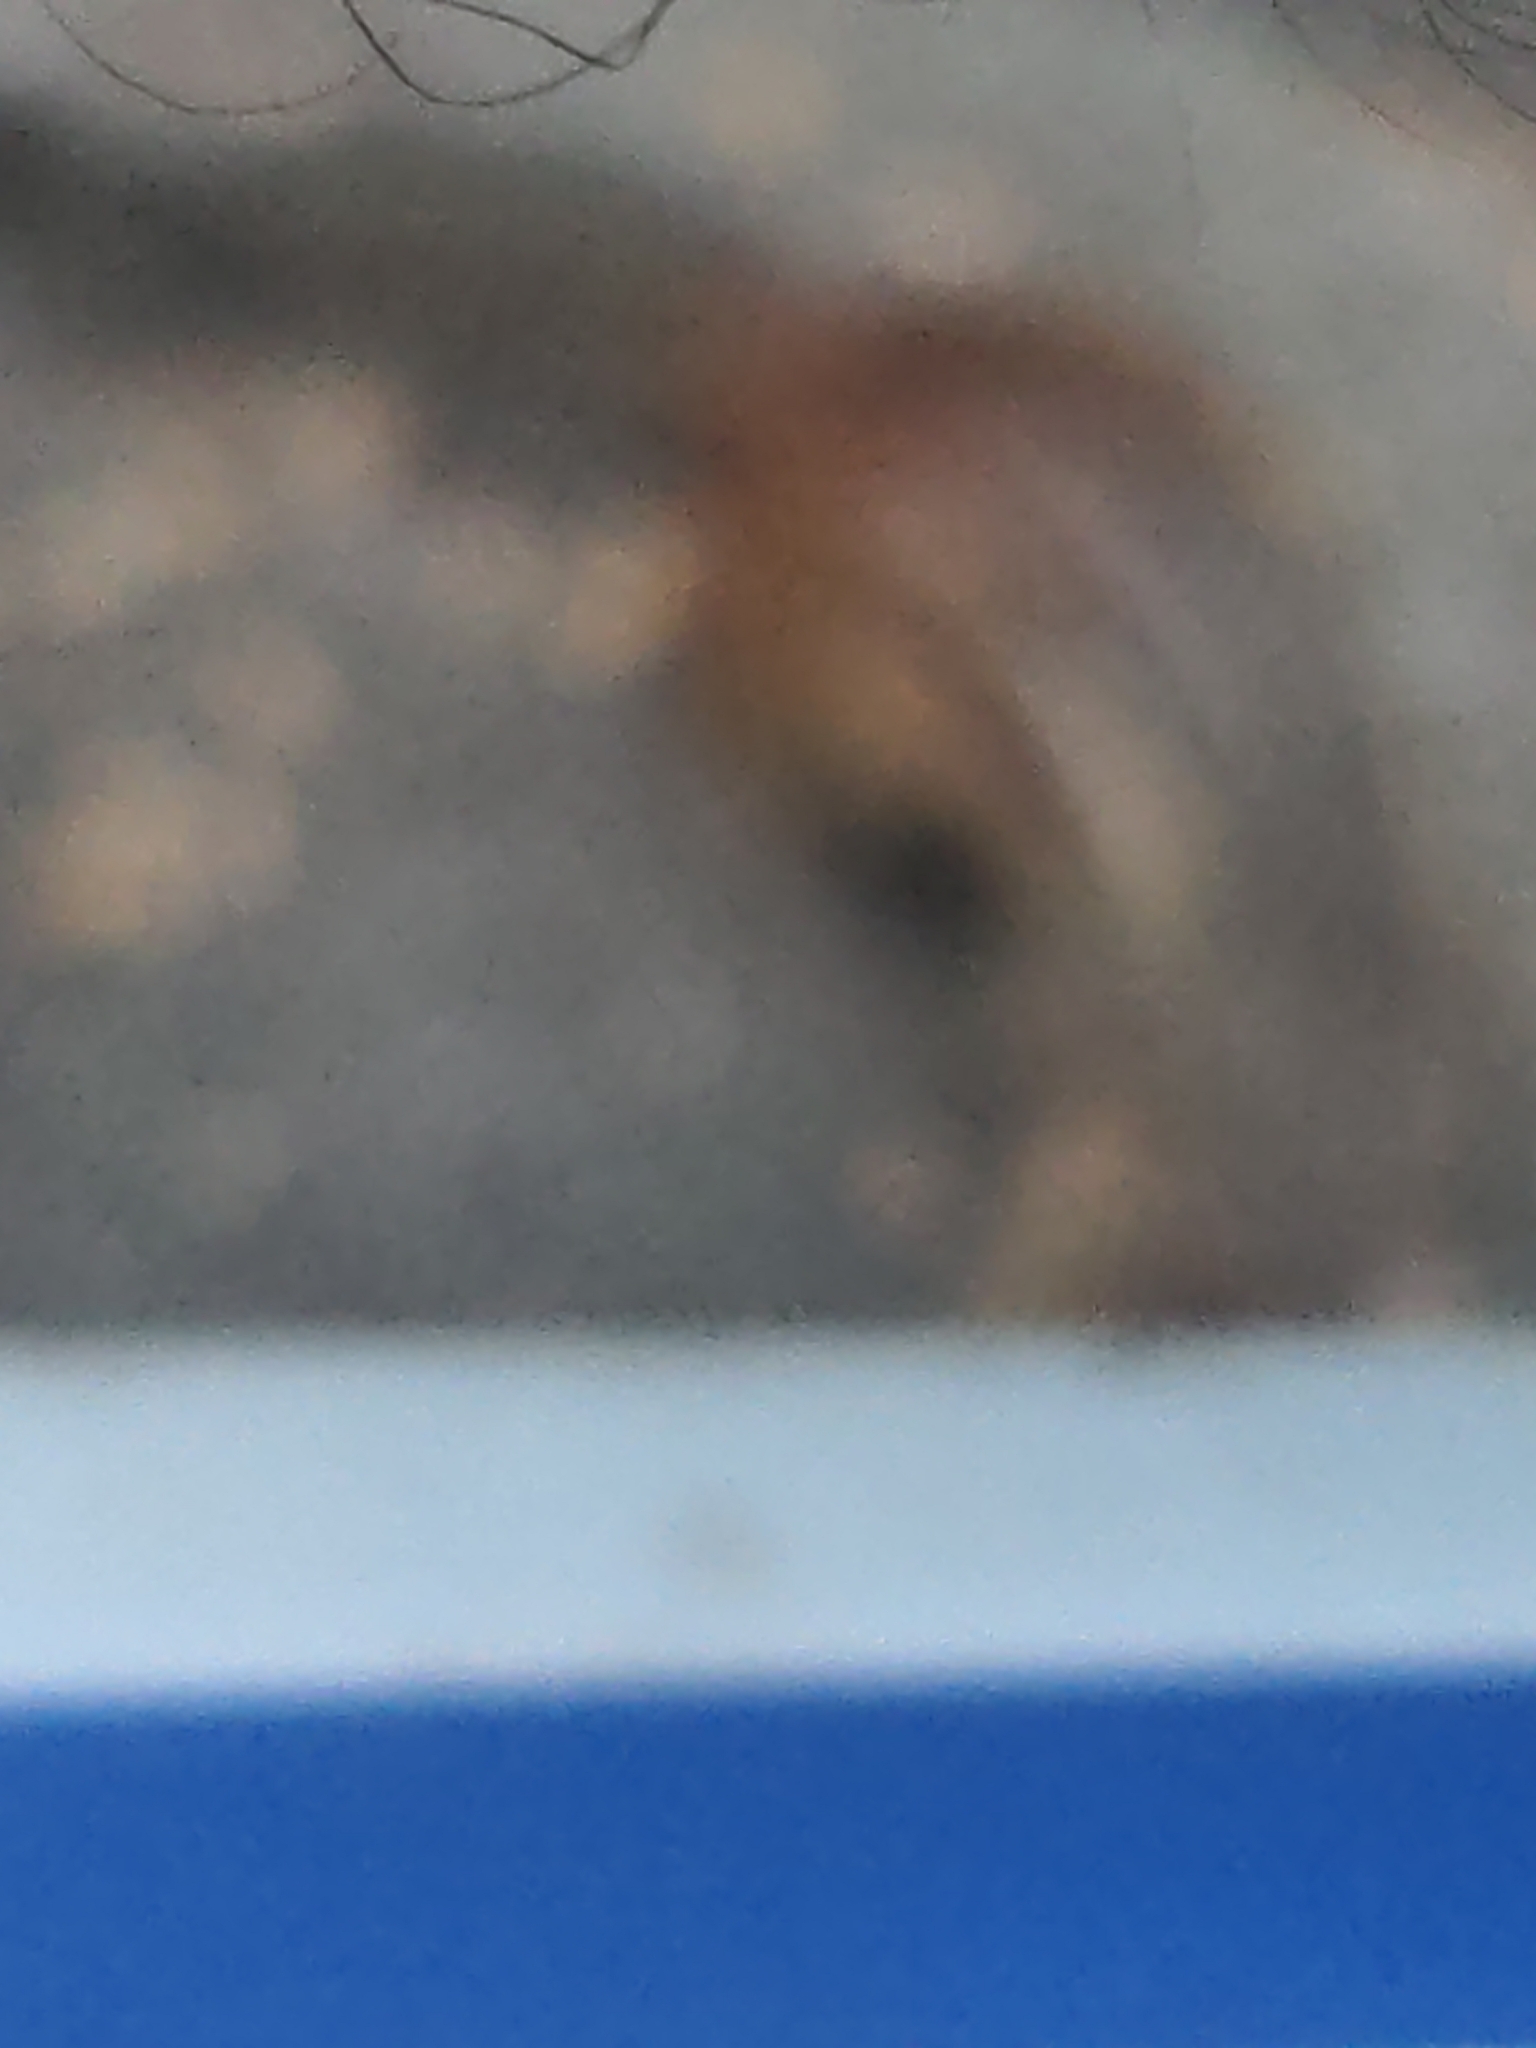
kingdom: Animalia
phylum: Chordata
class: Mammalia
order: Rodentia
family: Sciuridae
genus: Tamias
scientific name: Tamias striatus
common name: Eastern chipmunk
